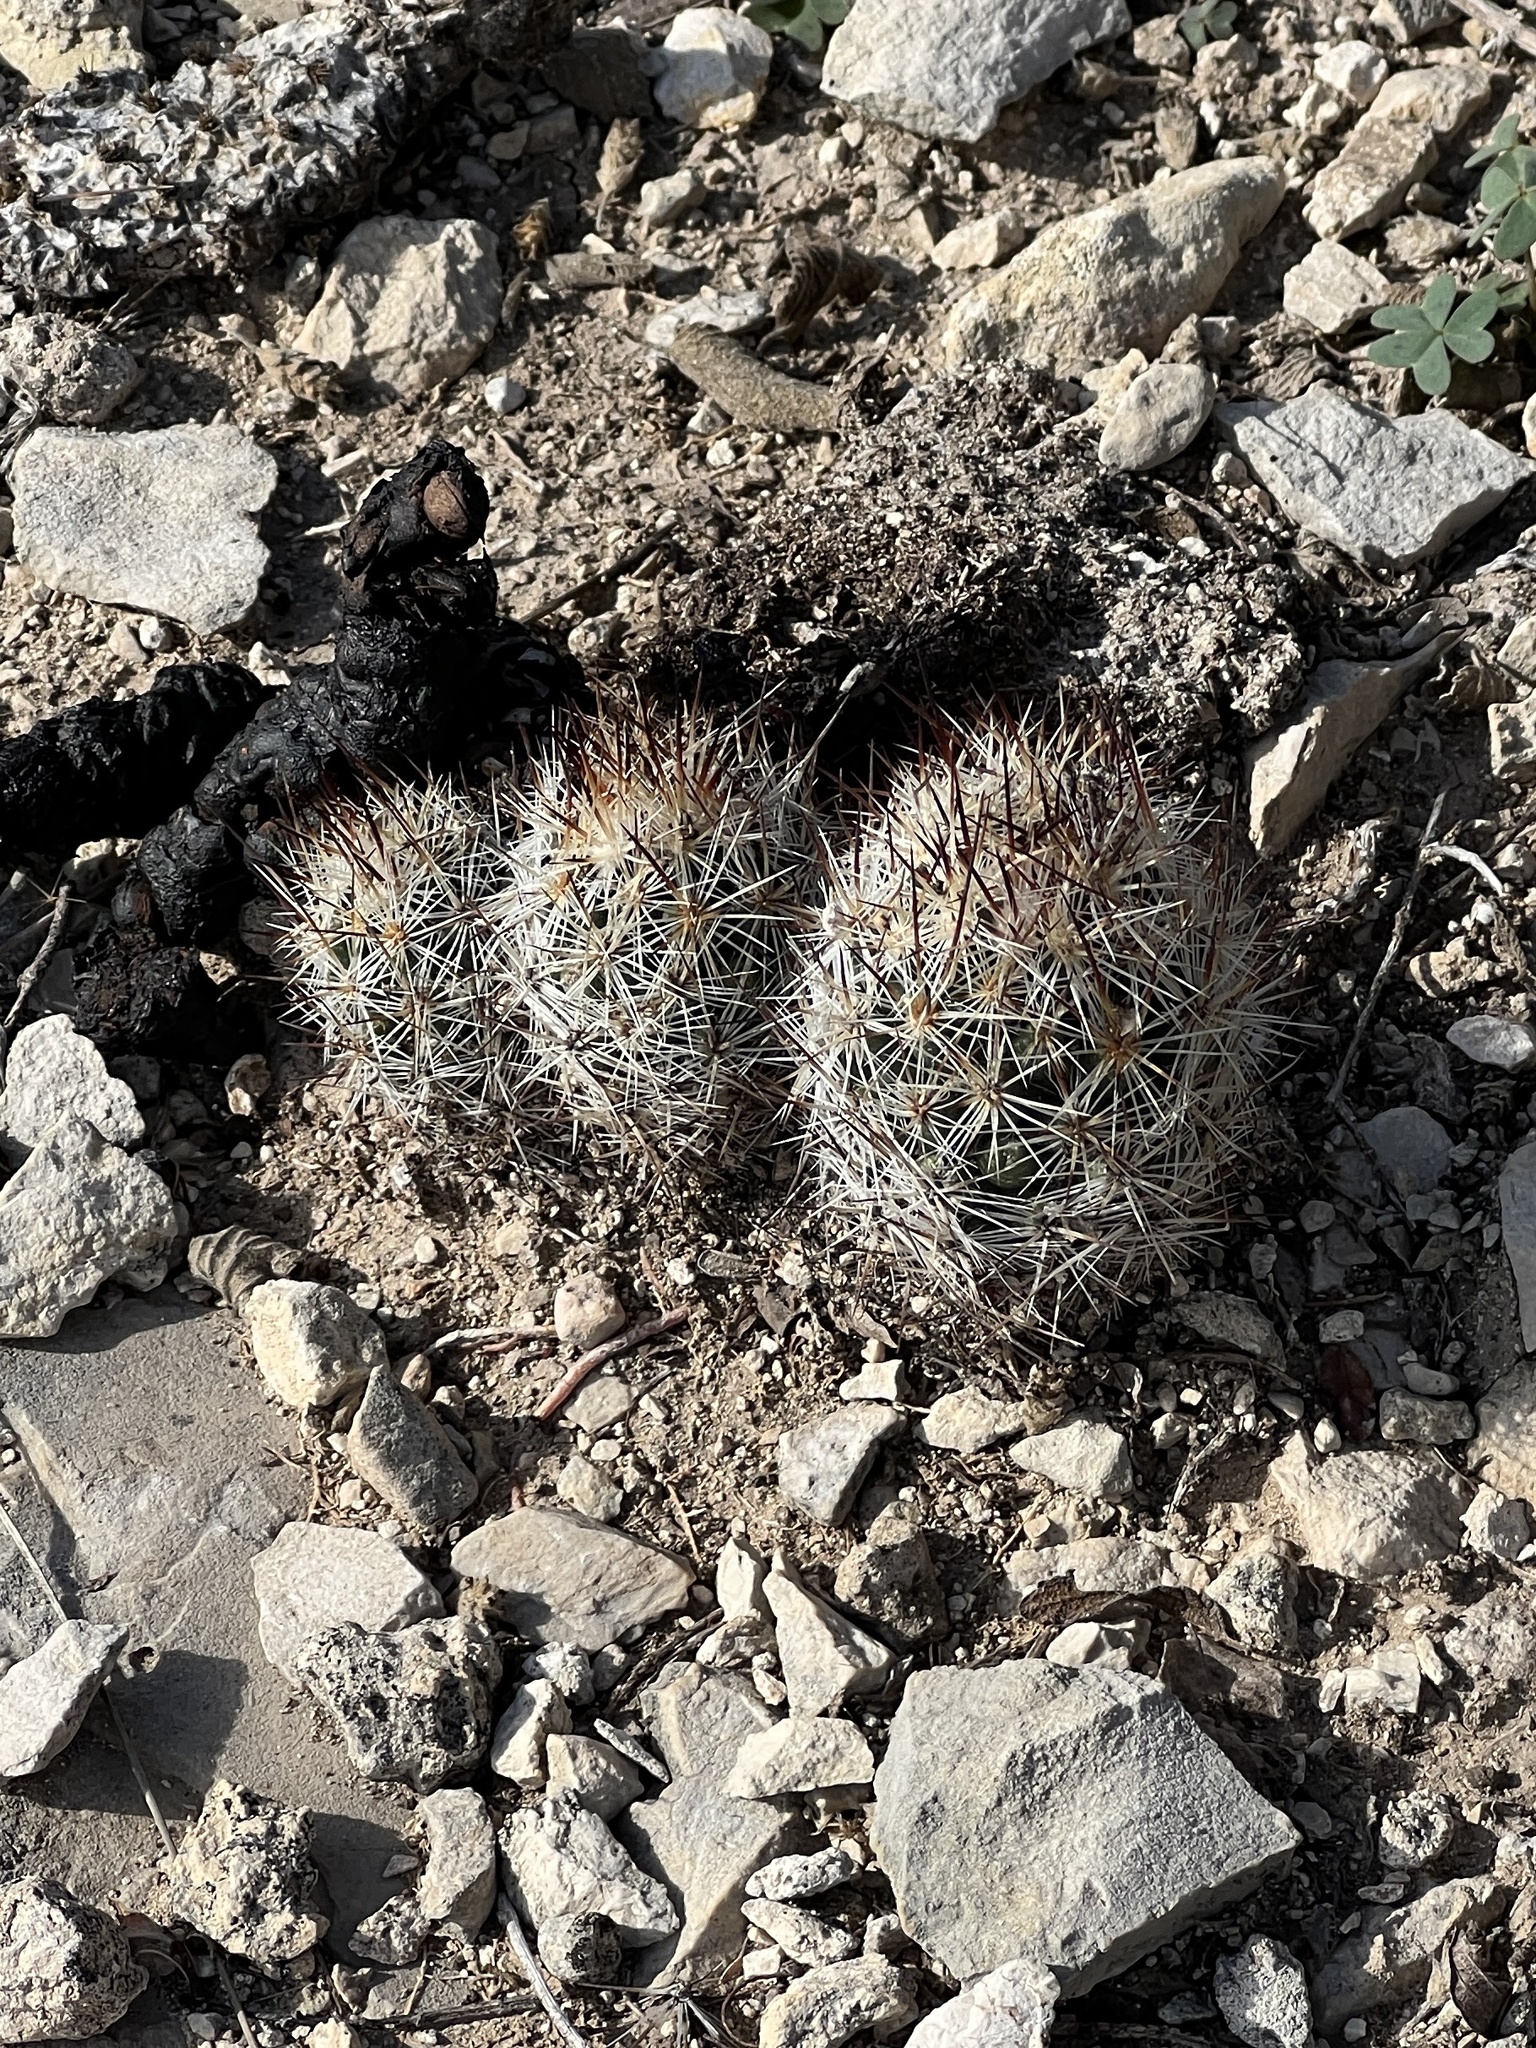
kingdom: Plantae
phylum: Tracheophyta
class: Magnoliopsida
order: Caryophyllales
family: Cactaceae
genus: Pelecyphora
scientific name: Pelecyphora emskoetteriana
